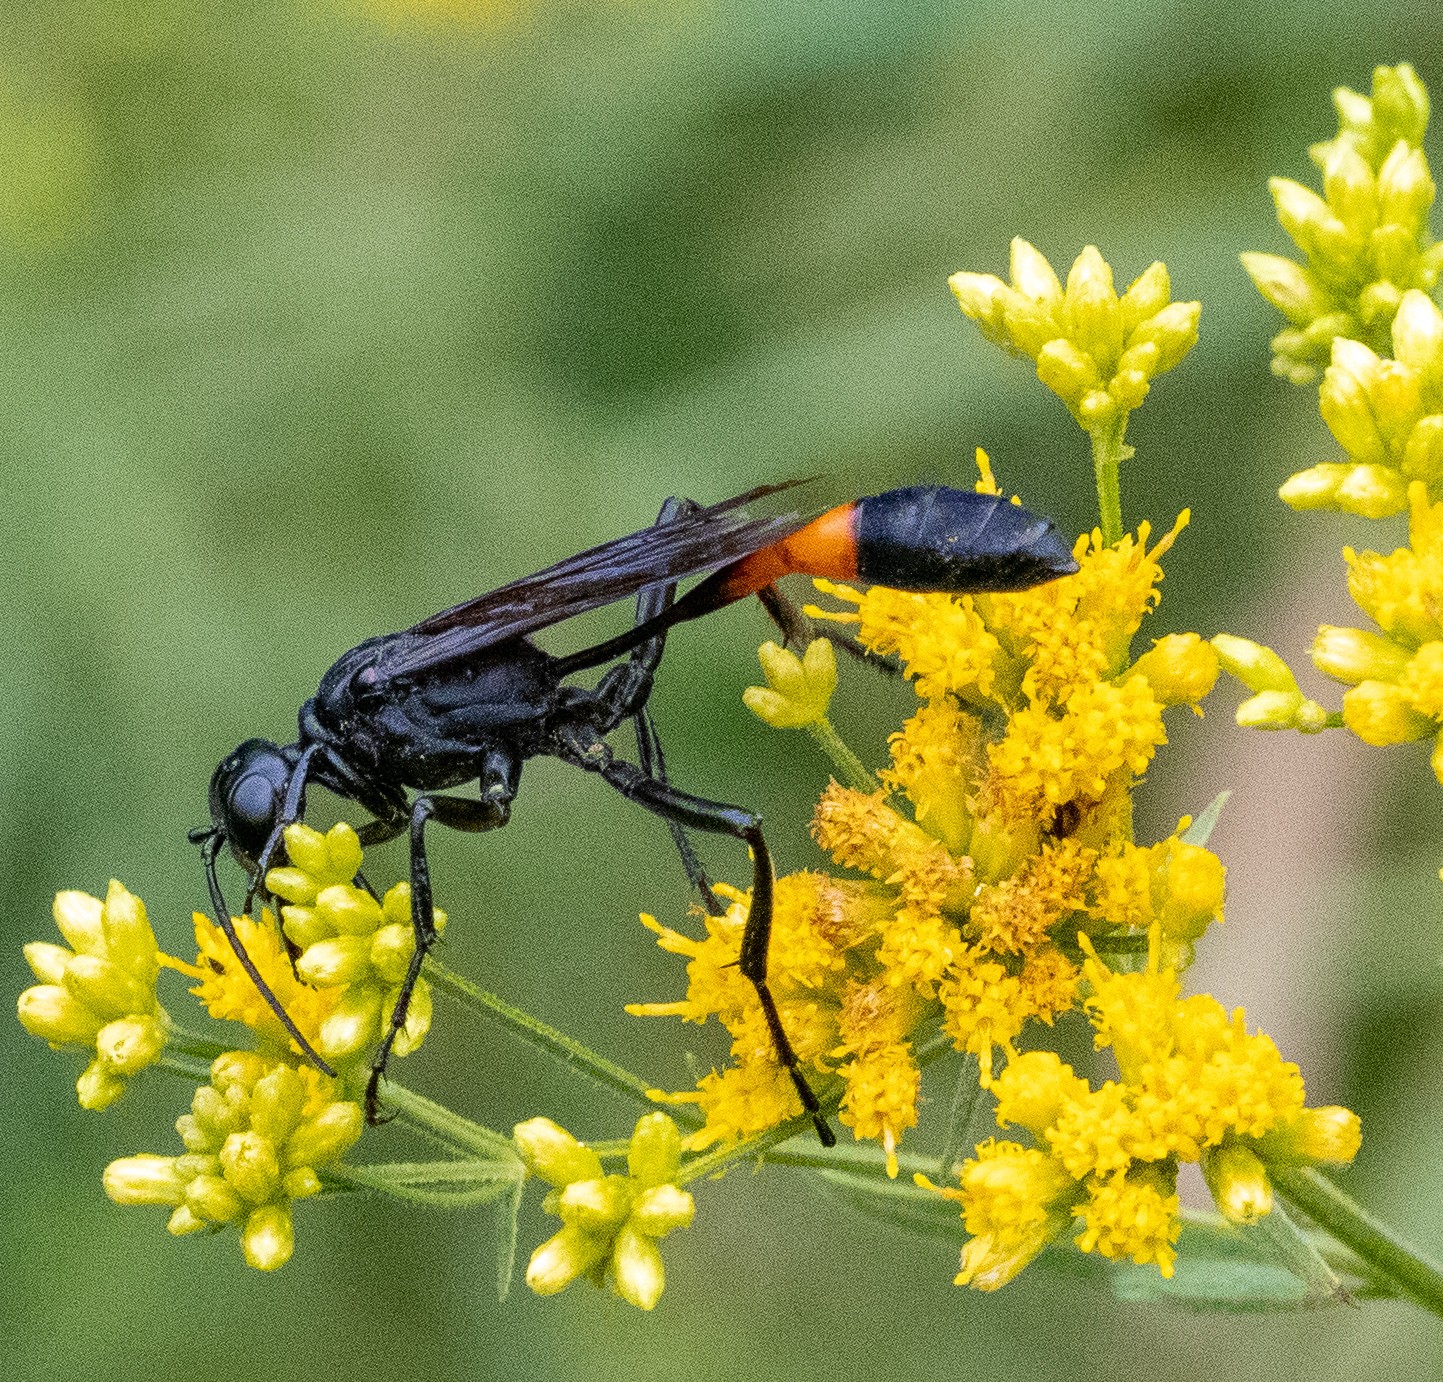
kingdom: Animalia
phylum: Arthropoda
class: Insecta
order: Hymenoptera
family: Sphecidae
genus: Ammophila
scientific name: Ammophila nigricans
